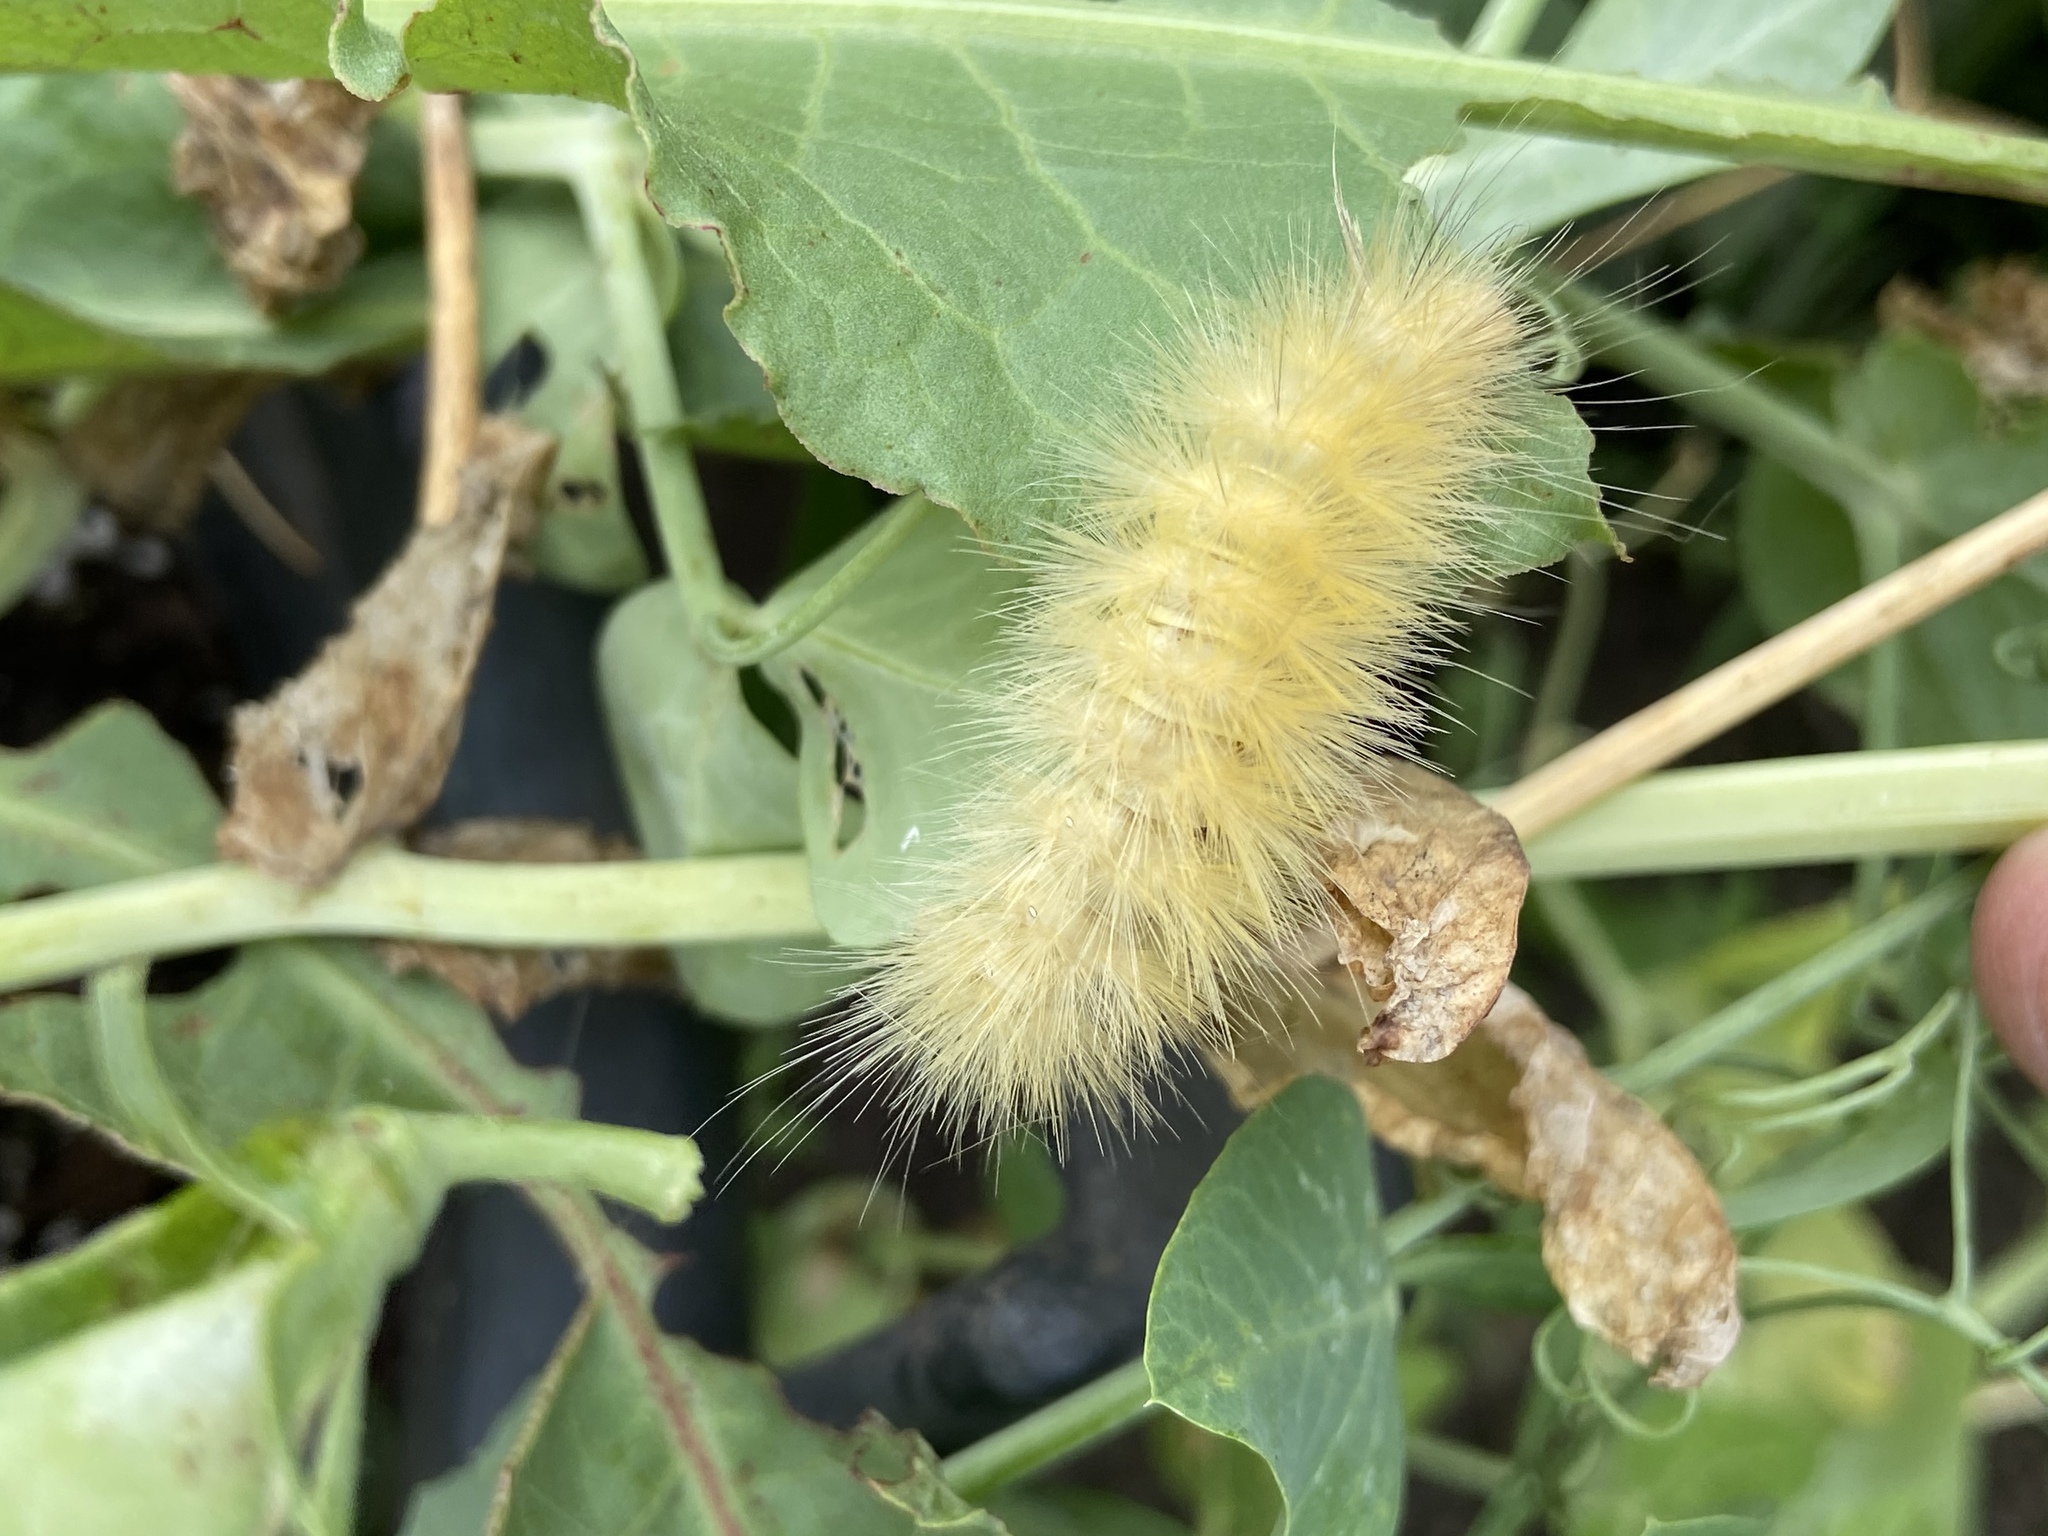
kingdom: Animalia
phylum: Arthropoda
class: Insecta
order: Lepidoptera
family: Erebidae
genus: Spilosoma
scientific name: Spilosoma virginica
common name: Virginia tiger moth
